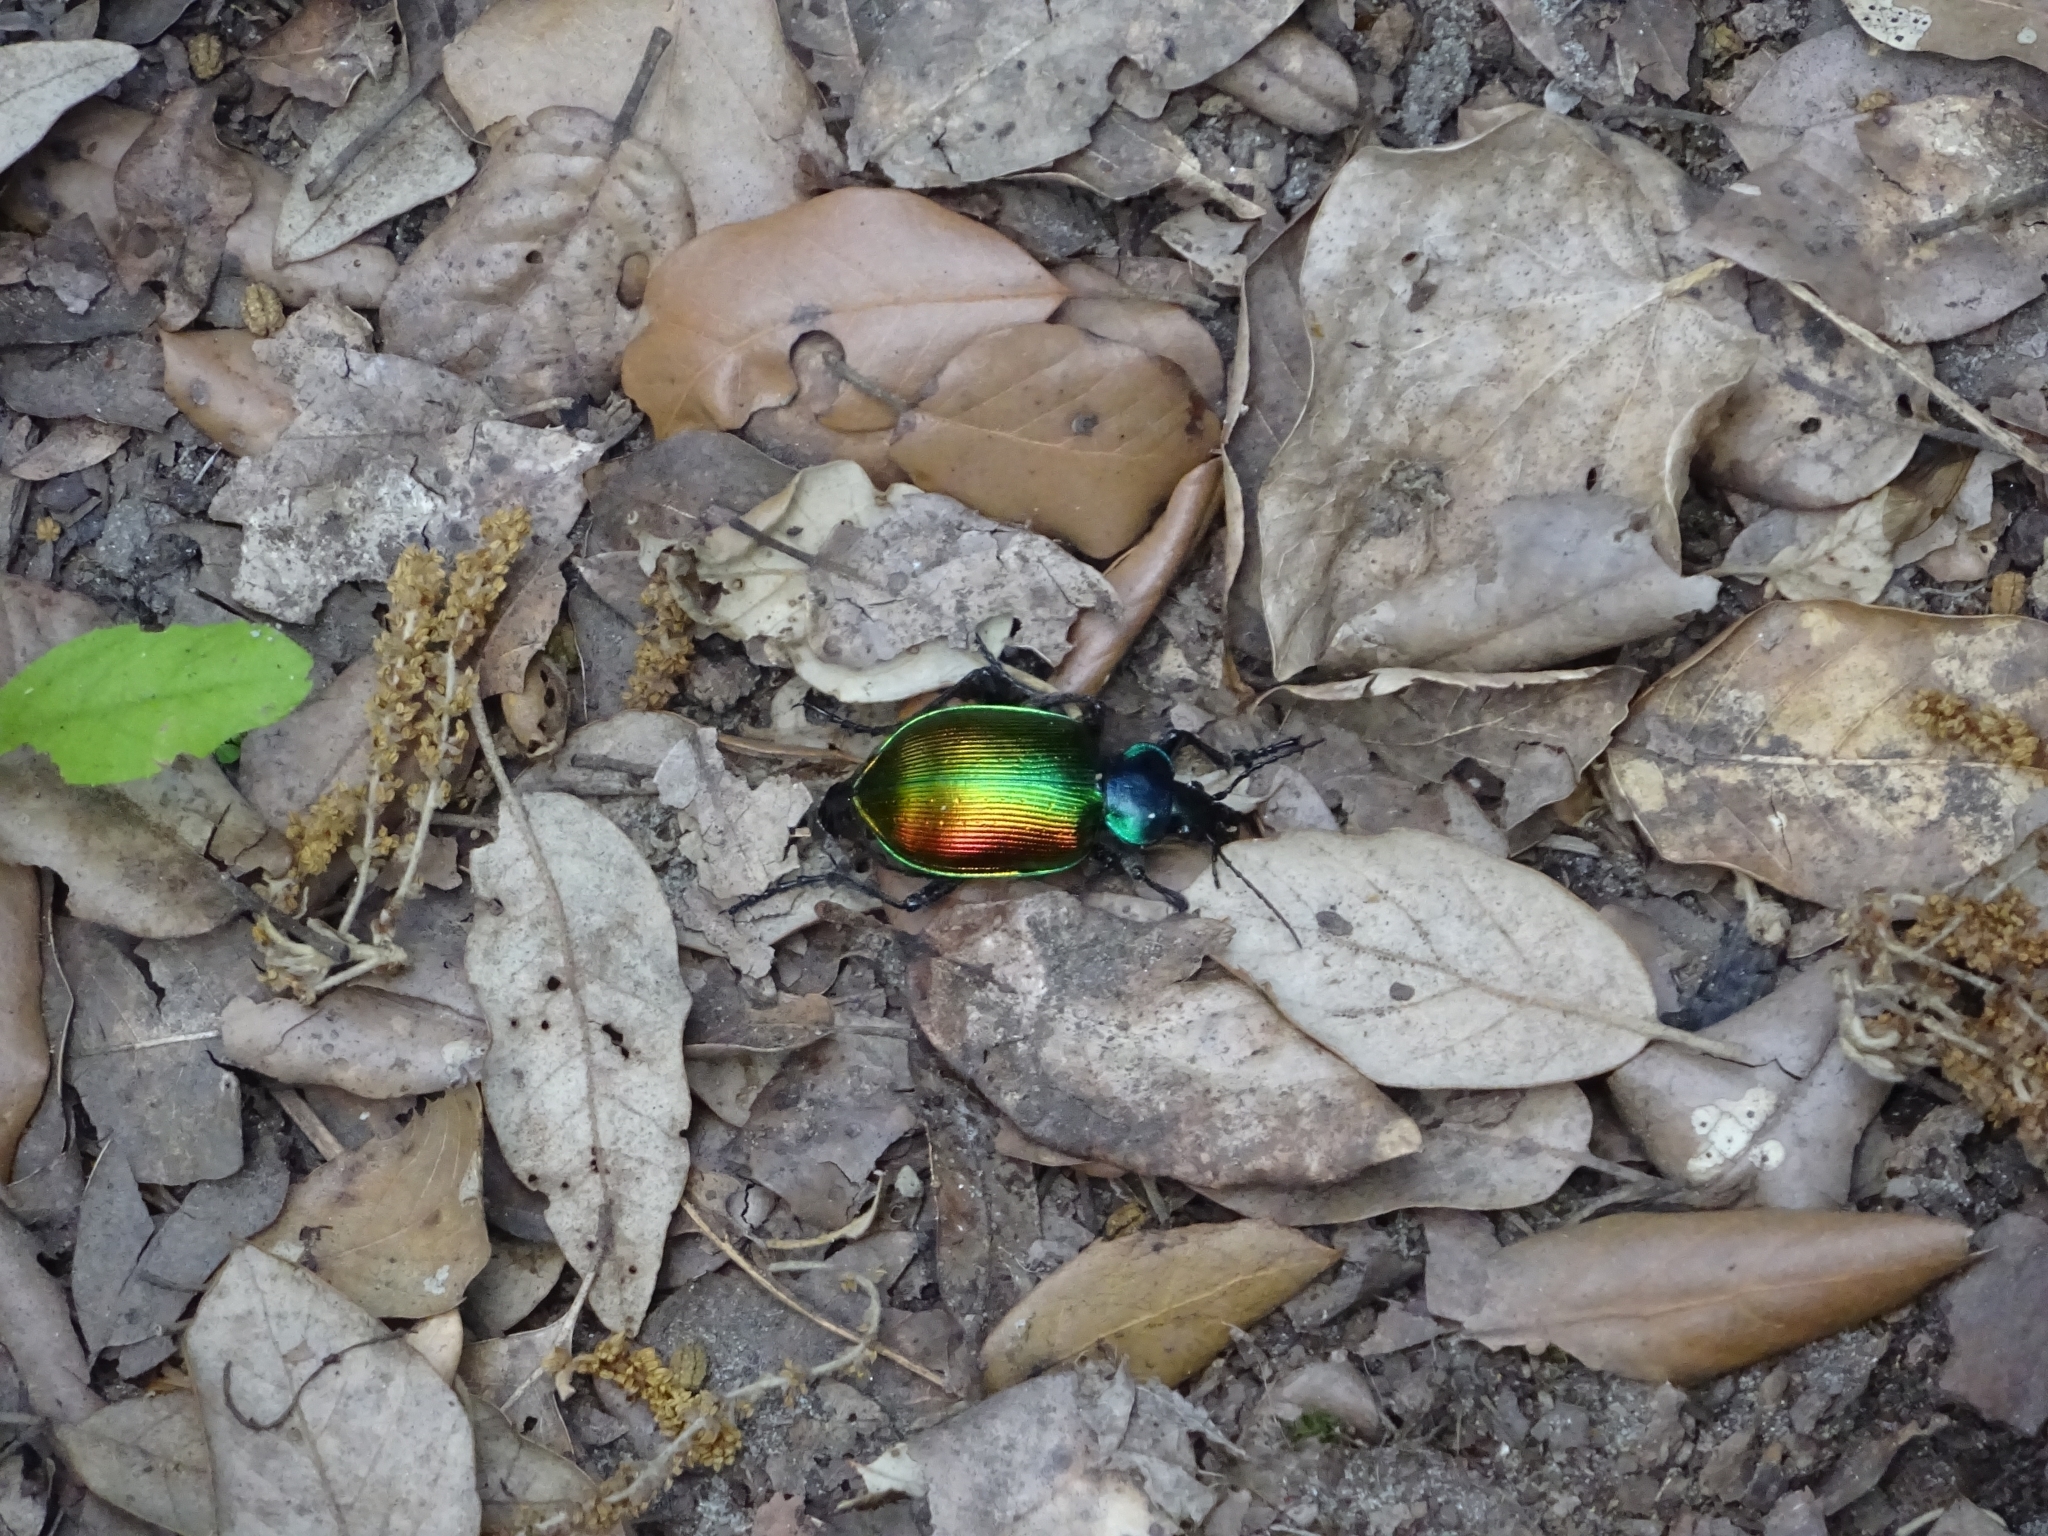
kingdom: Animalia
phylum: Arthropoda
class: Insecta
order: Coleoptera
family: Carabidae
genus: Calosoma
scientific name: Calosoma sycophanta
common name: Forest caterpillar hunter
